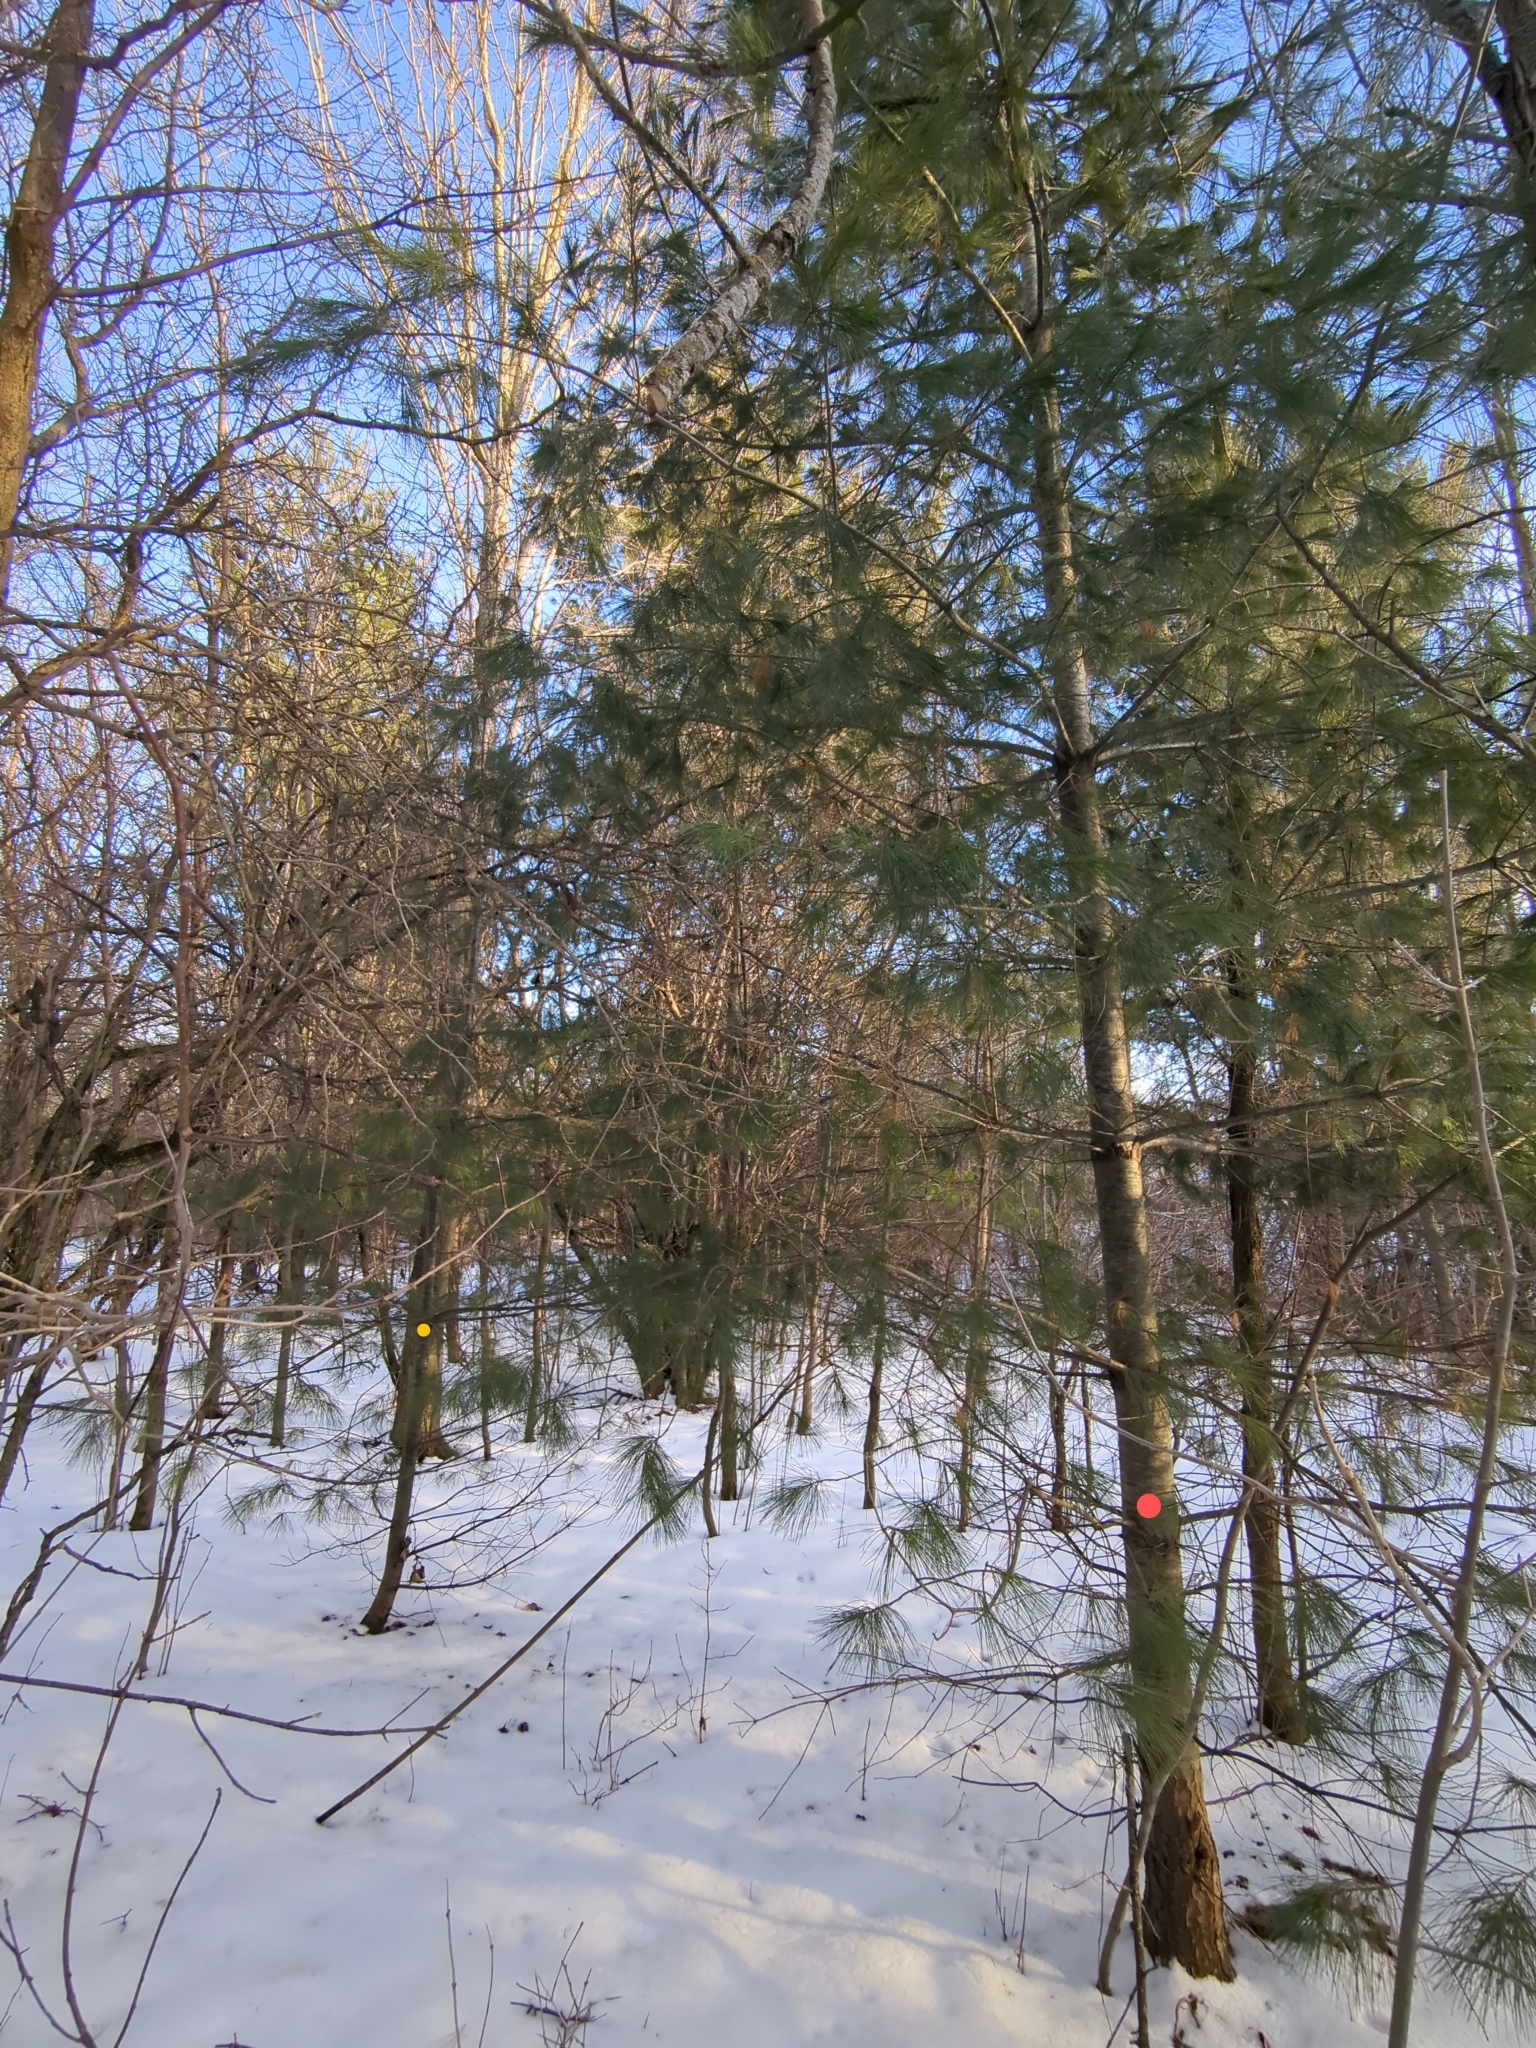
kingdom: Plantae
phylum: Tracheophyta
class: Pinopsida
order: Pinales
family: Pinaceae
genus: Pinus
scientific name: Pinus strobus
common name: Weymouth pine
